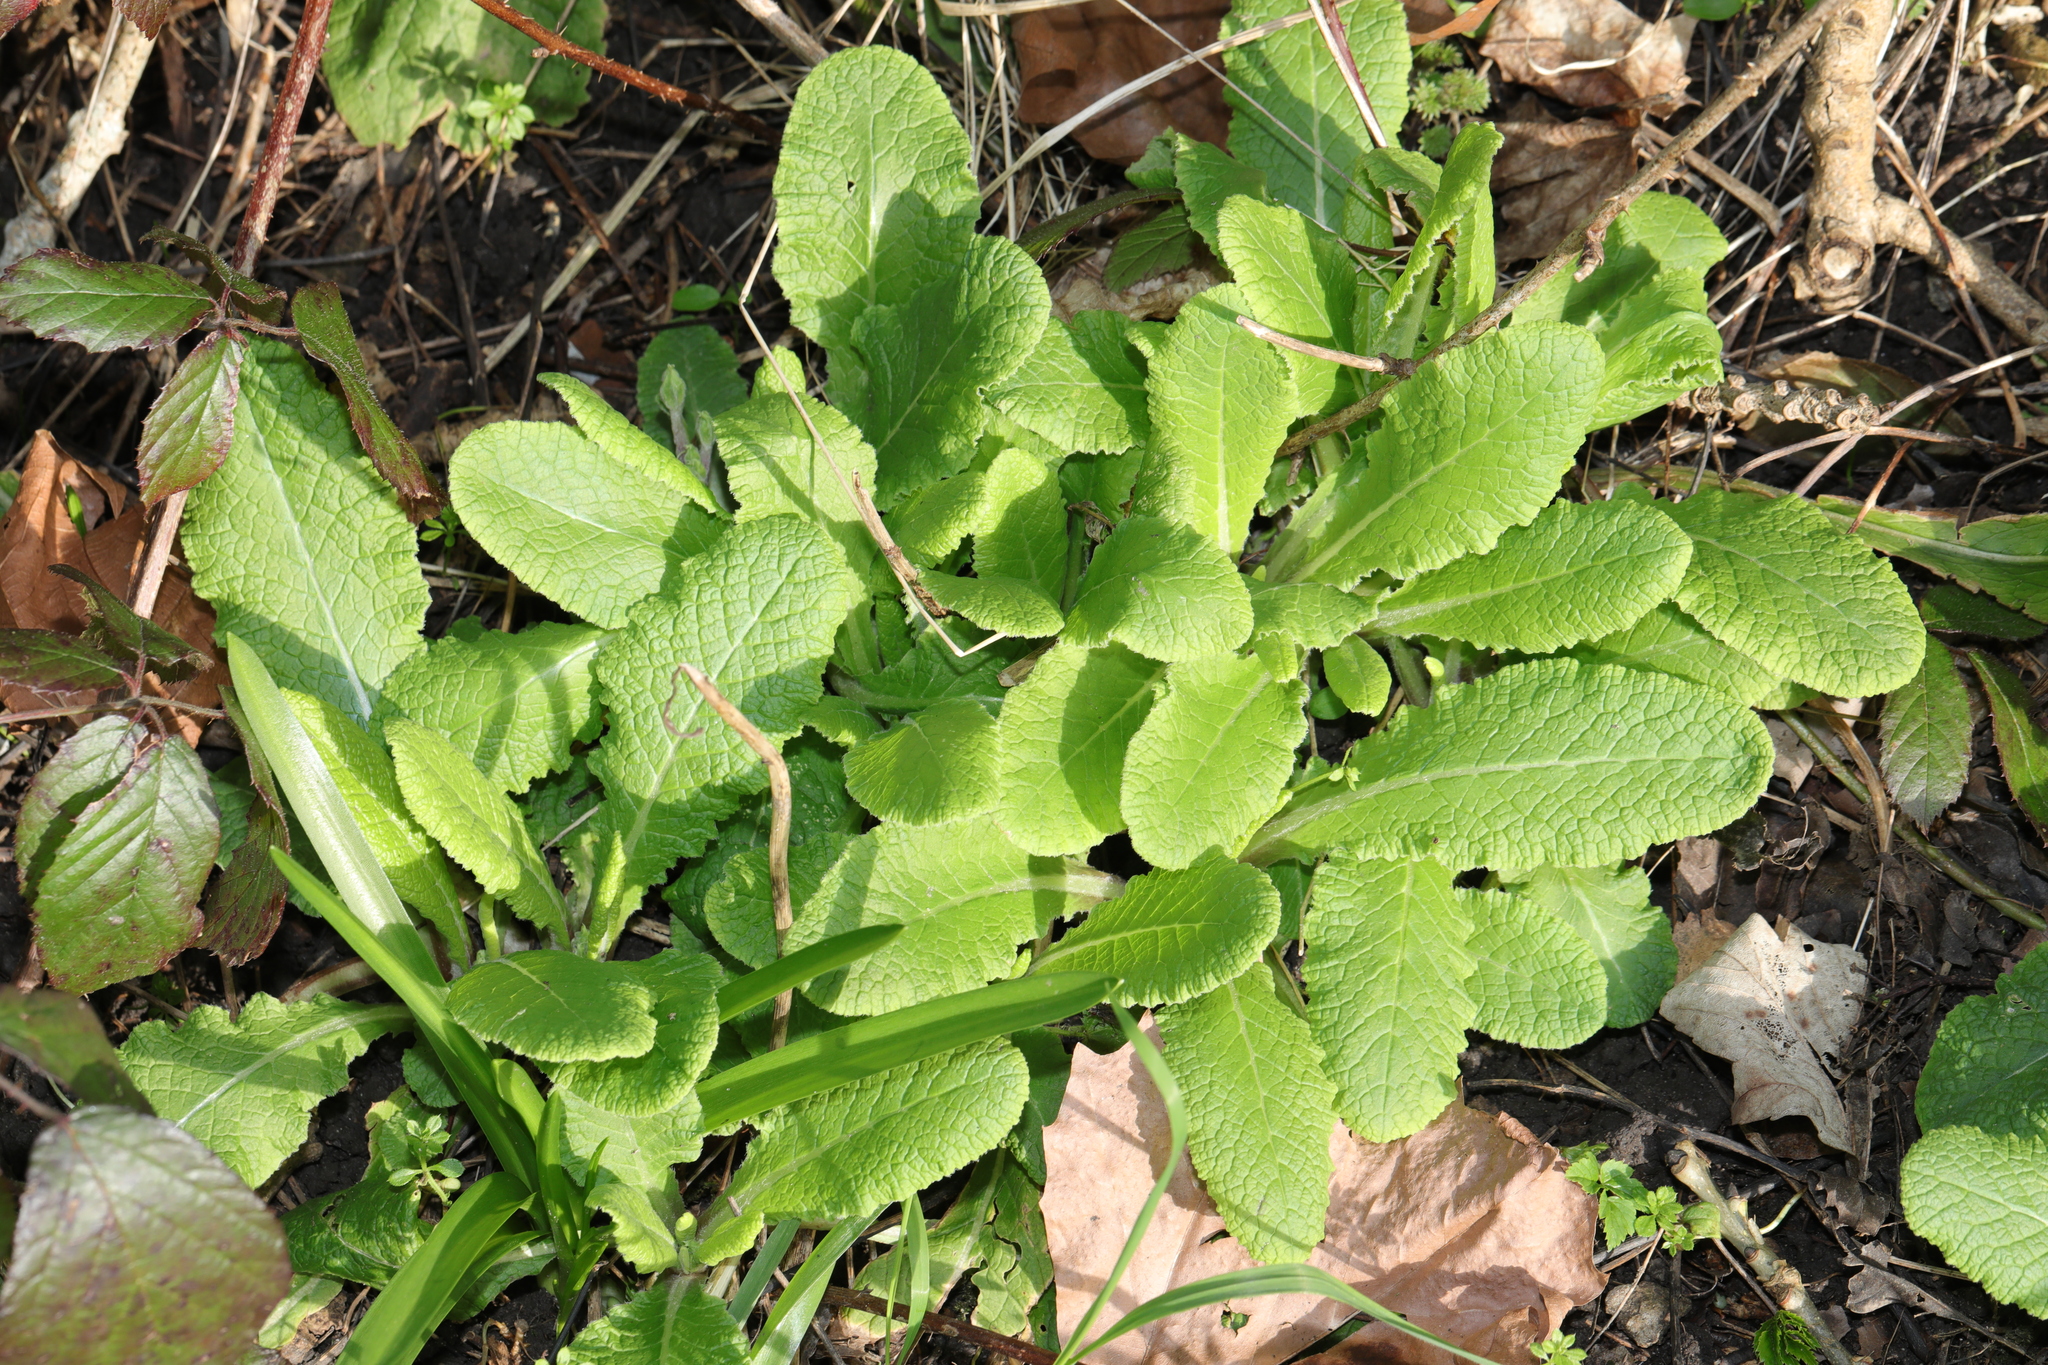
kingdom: Plantae
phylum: Tracheophyta
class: Magnoliopsida
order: Ericales
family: Primulaceae
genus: Primula
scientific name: Primula vulgaris
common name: Primrose
